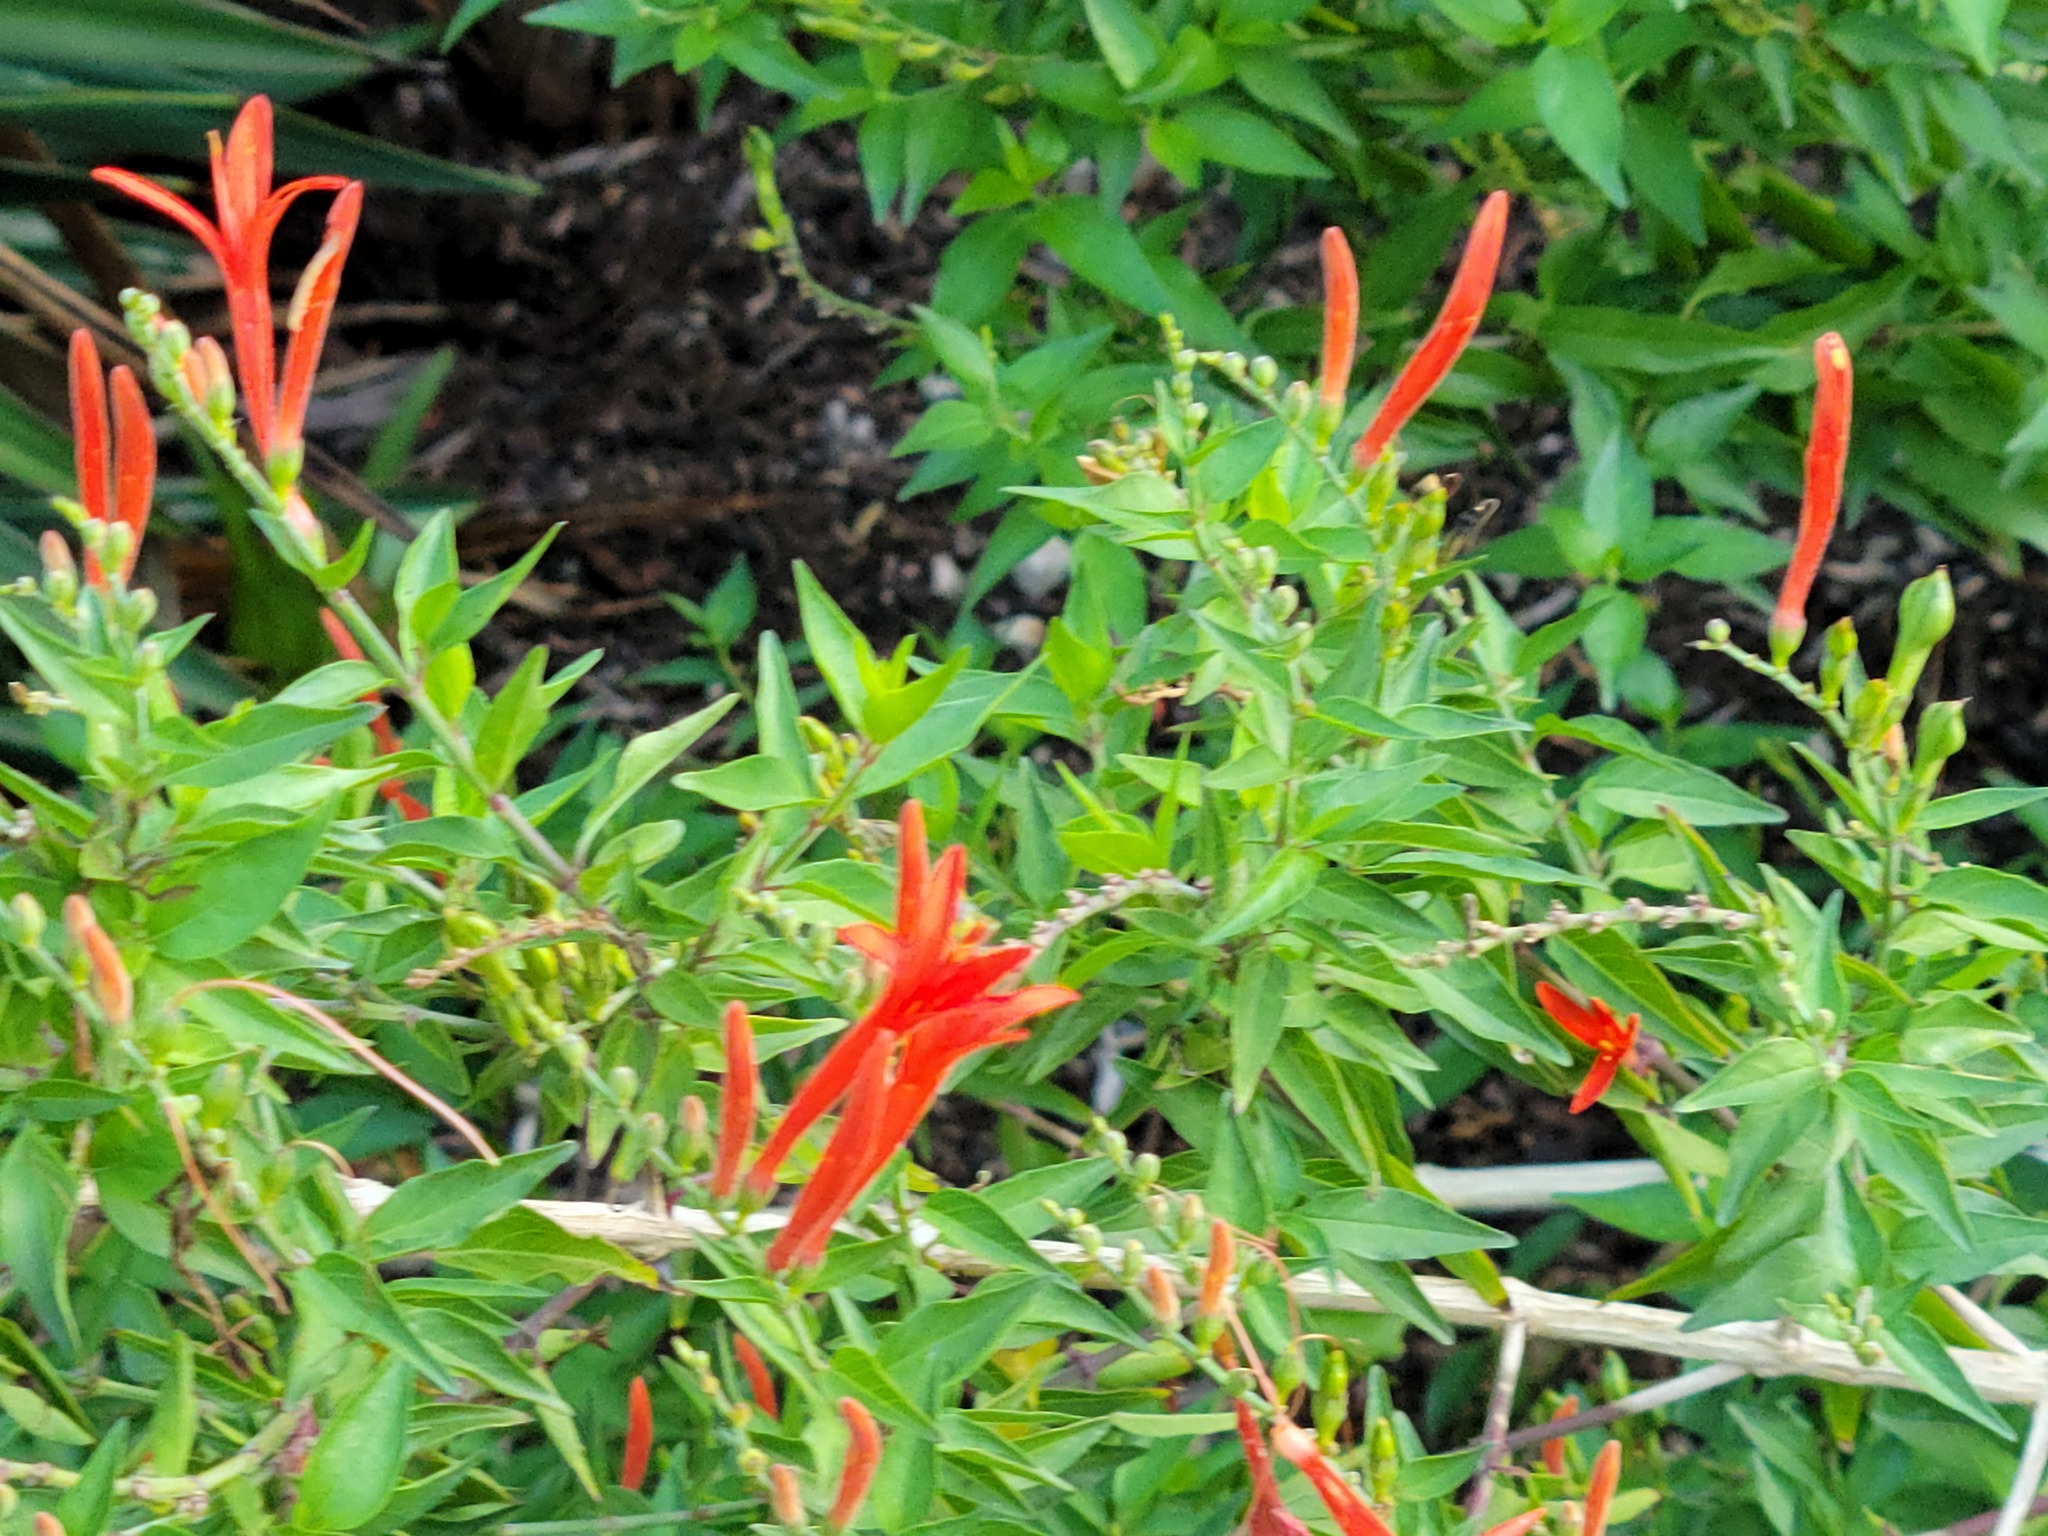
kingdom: Plantae
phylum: Tracheophyta
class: Magnoliopsida
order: Lamiales
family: Acanthaceae
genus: Anisacanthus
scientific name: Anisacanthus quadrifidus
